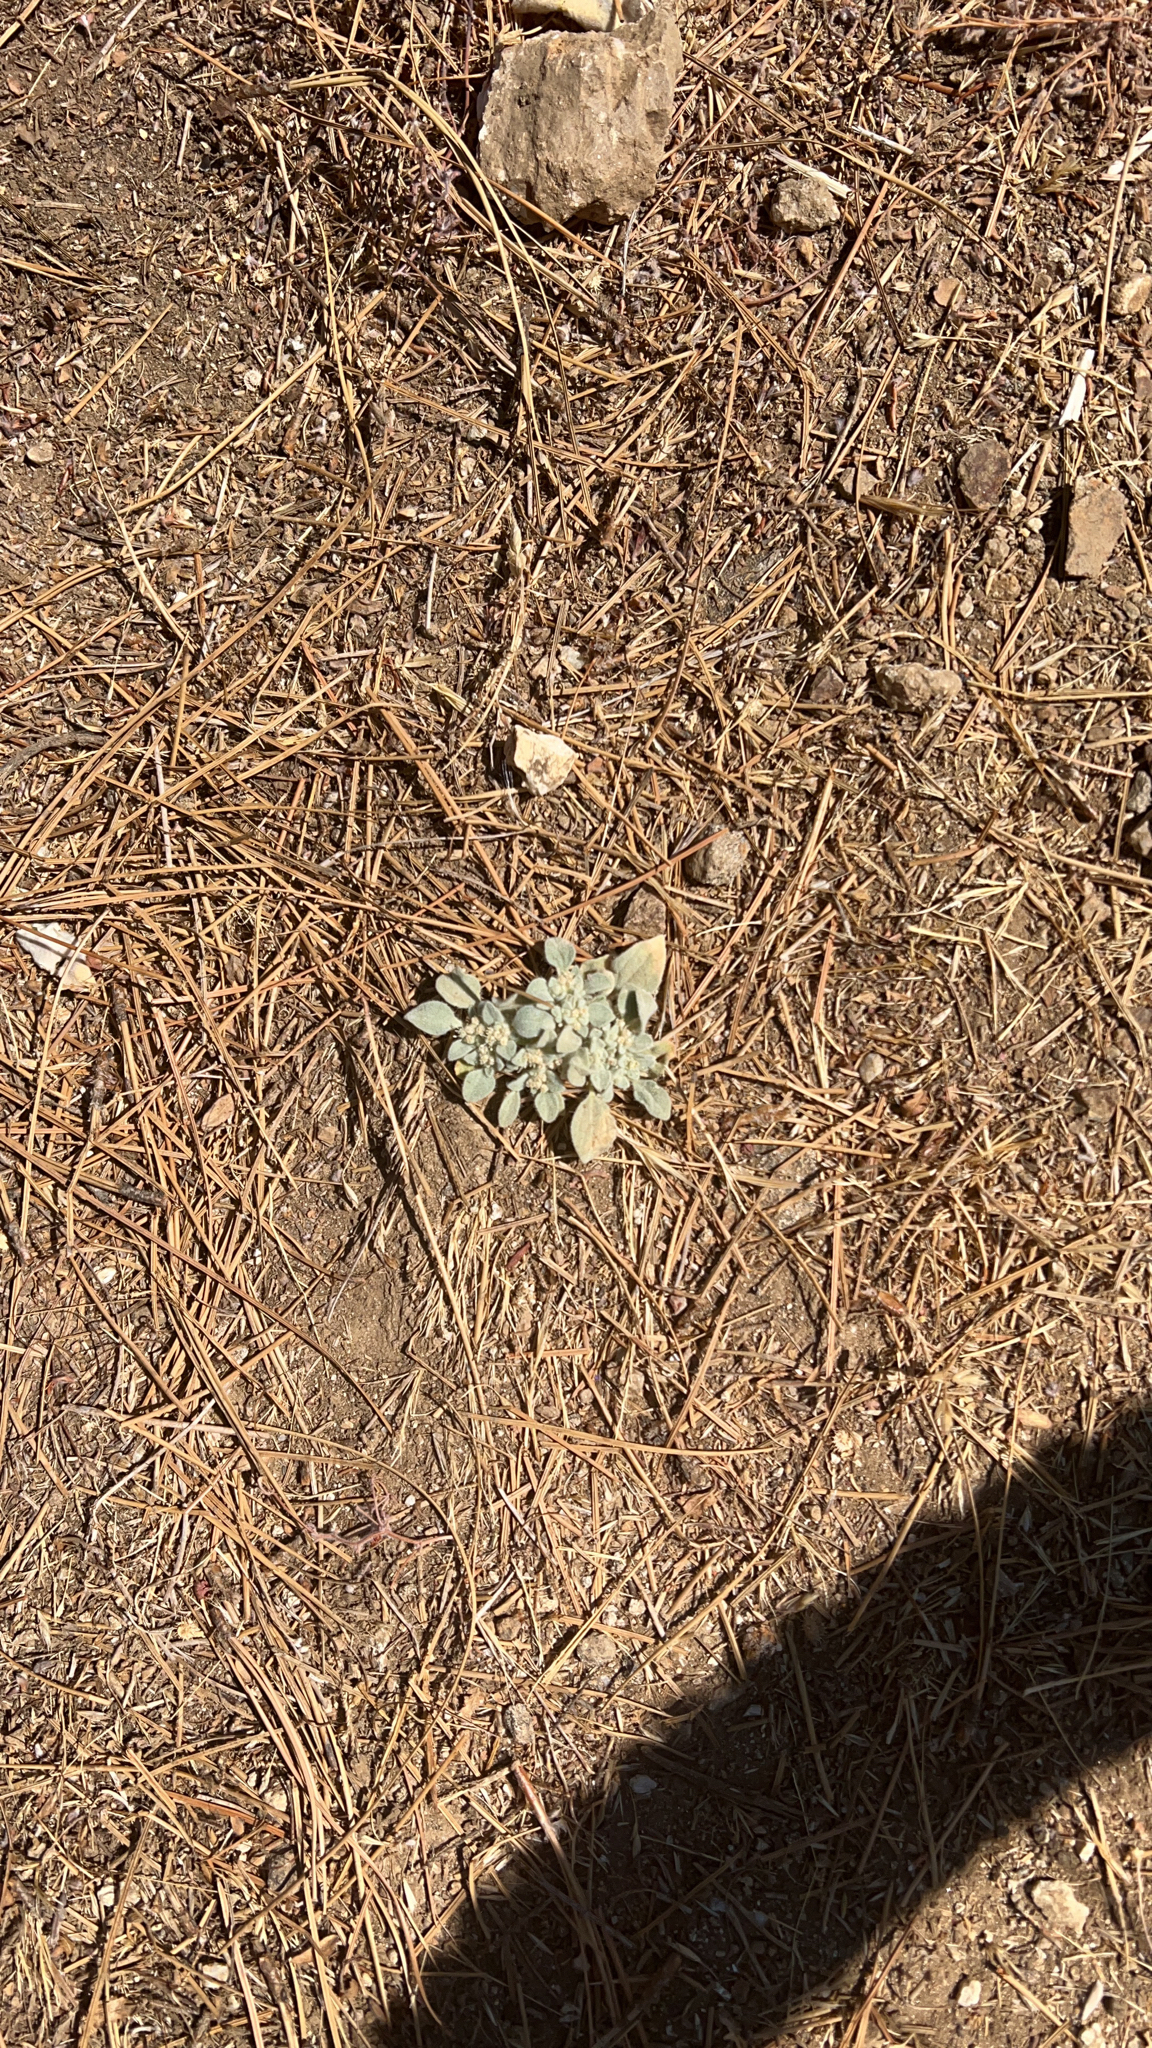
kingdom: Plantae
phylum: Tracheophyta
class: Magnoliopsida
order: Malpighiales
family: Euphorbiaceae
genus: Croton
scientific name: Croton setiger
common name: Dove weed
